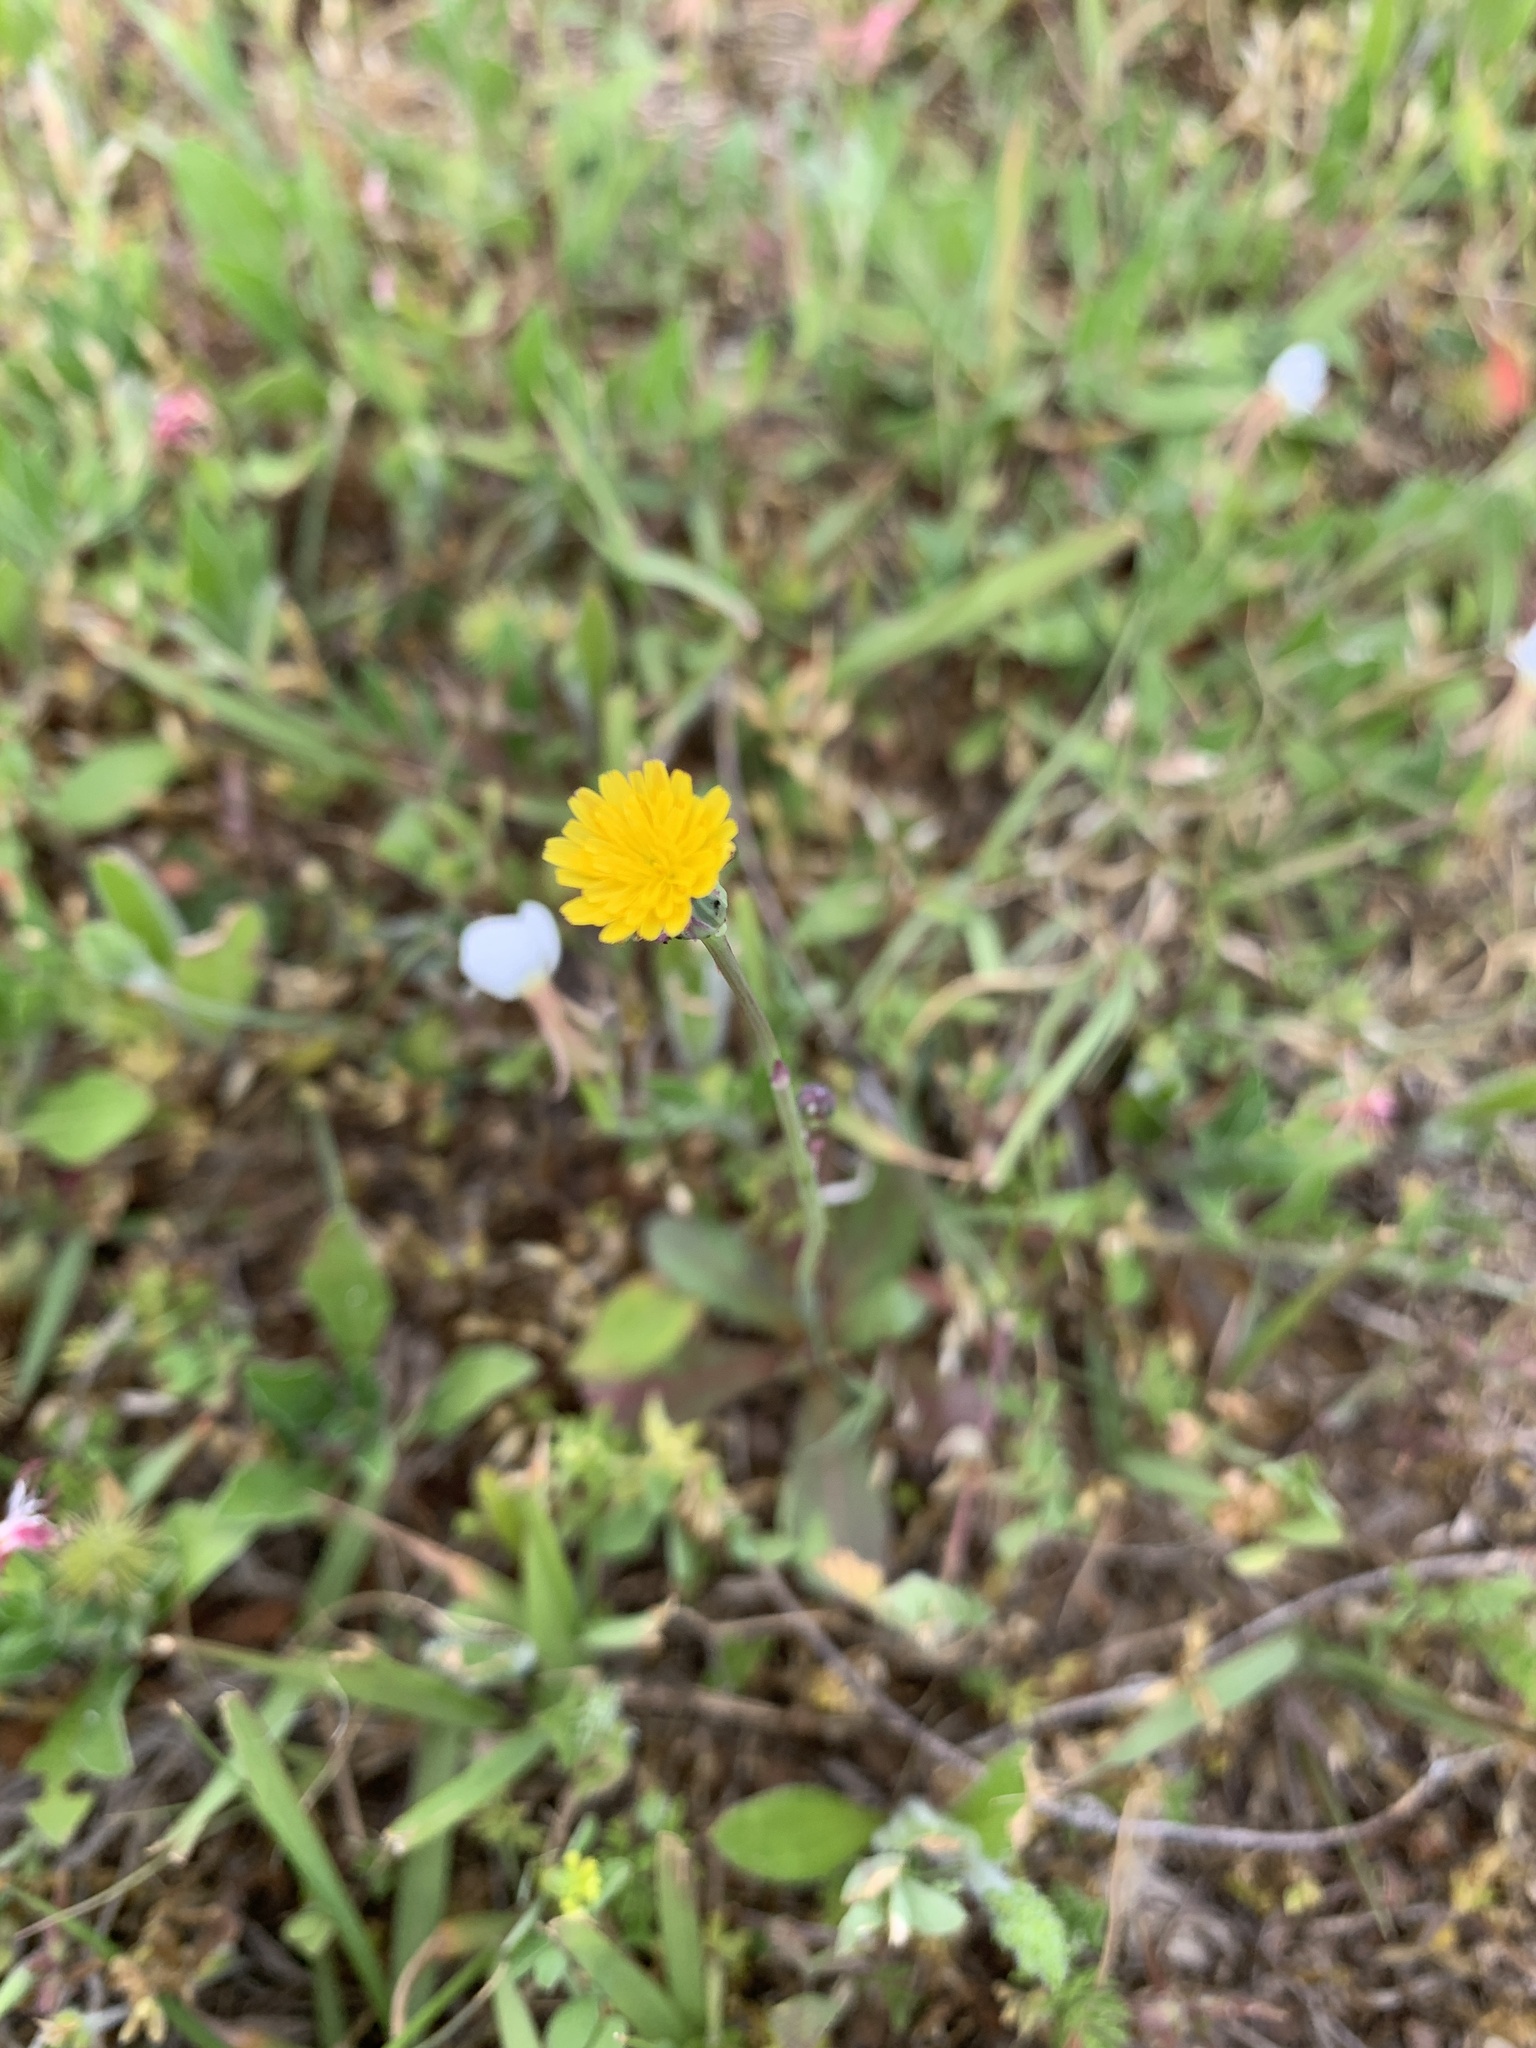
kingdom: Plantae
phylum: Tracheophyta
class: Magnoliopsida
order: Asterales
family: Asteraceae
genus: Hypochaeris
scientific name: Hypochaeris glabra
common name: Smooth catsear
